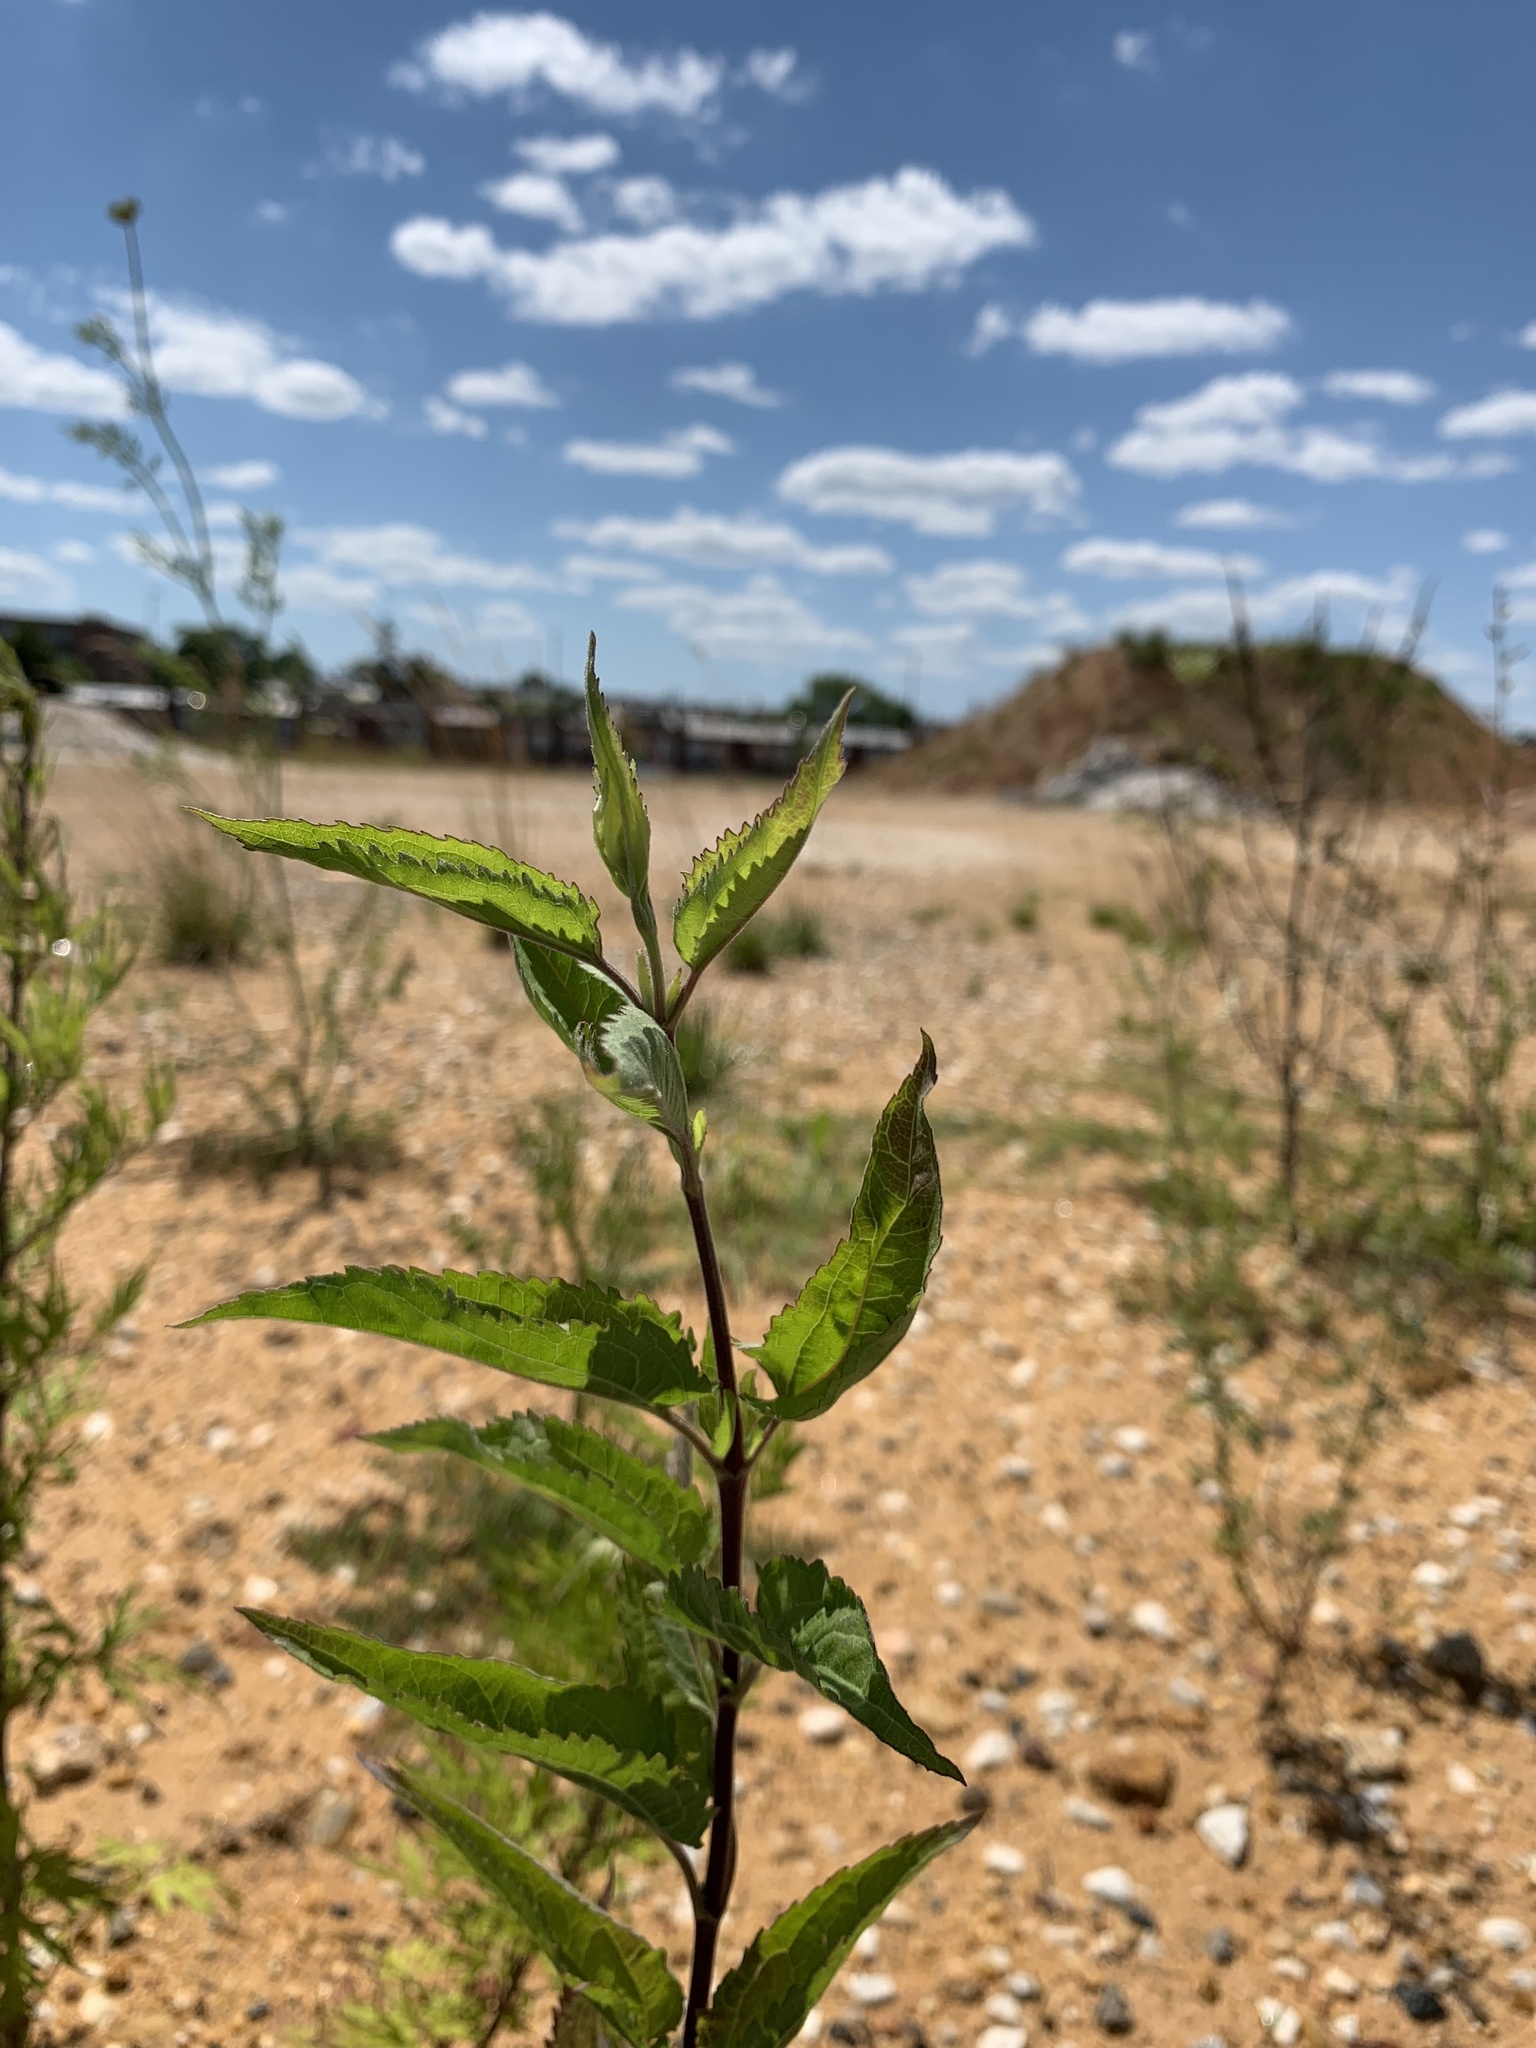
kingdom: Plantae
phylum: Tracheophyta
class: Magnoliopsida
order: Asterales
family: Asteraceae
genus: Eupatorium
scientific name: Eupatorium serotinum
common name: Late boneset
